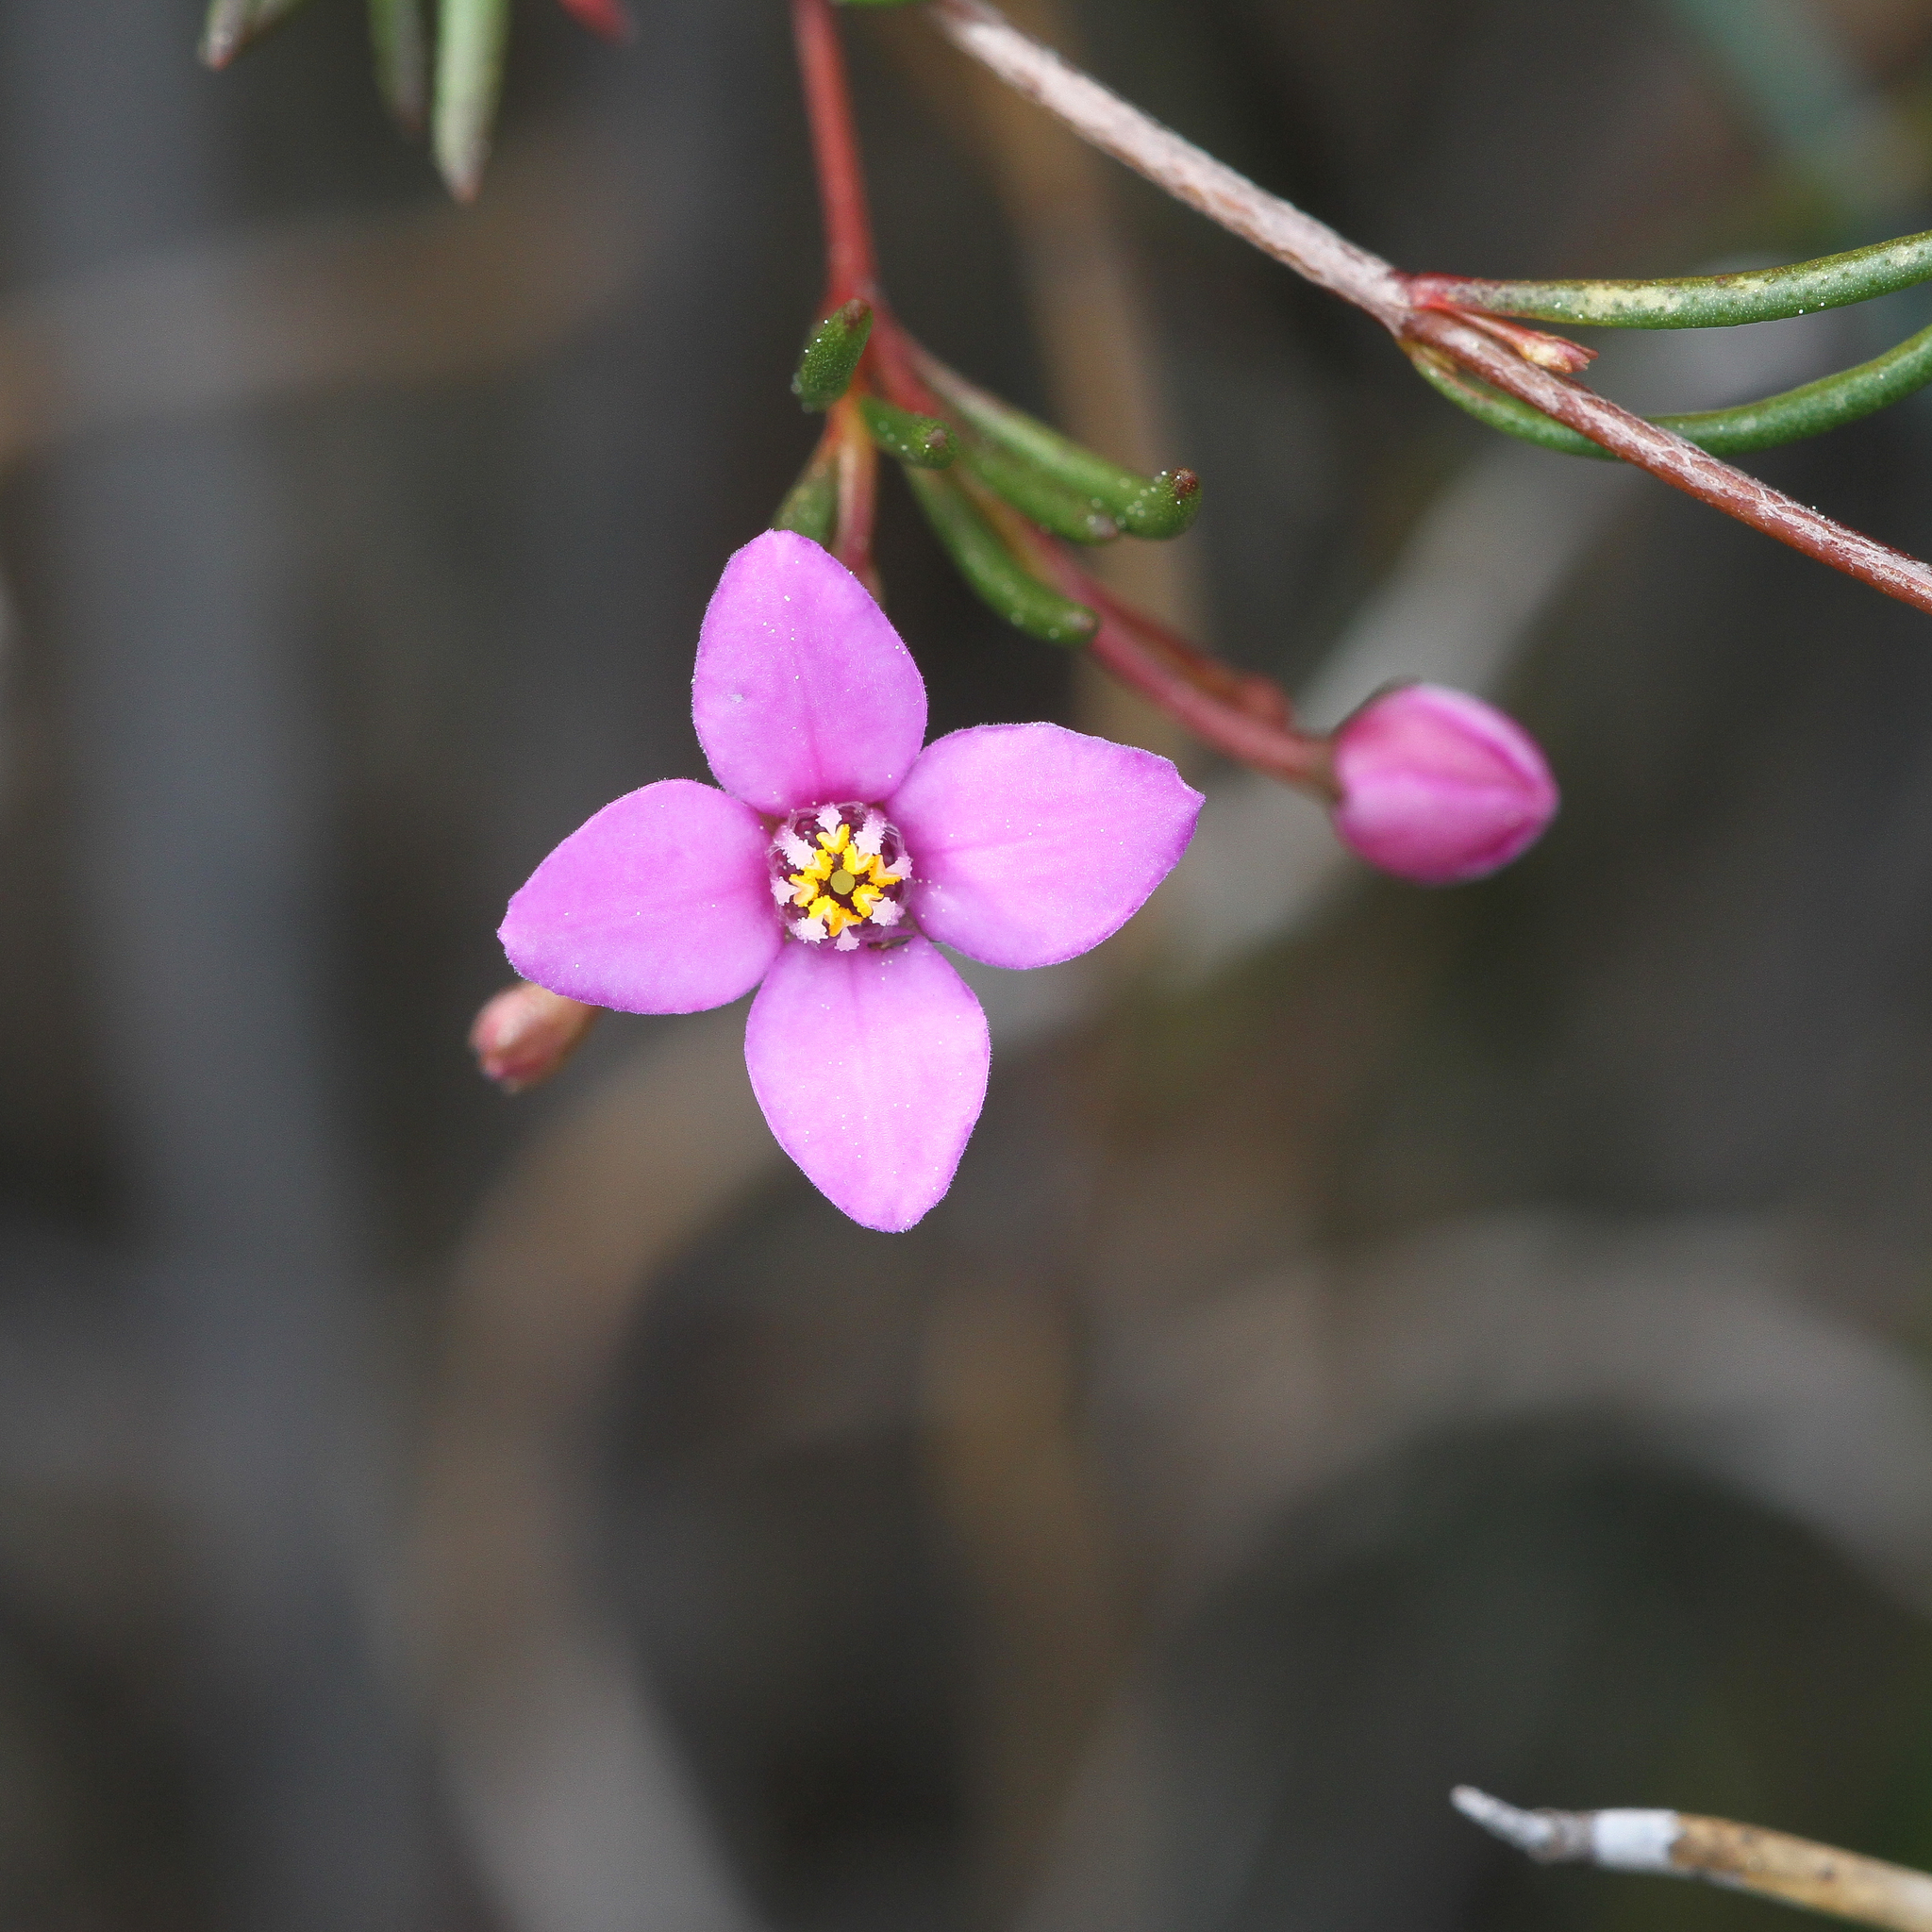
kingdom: Plantae
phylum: Tracheophyta
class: Magnoliopsida
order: Sapindales
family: Rutaceae
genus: Boronia
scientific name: Boronia filifolia
